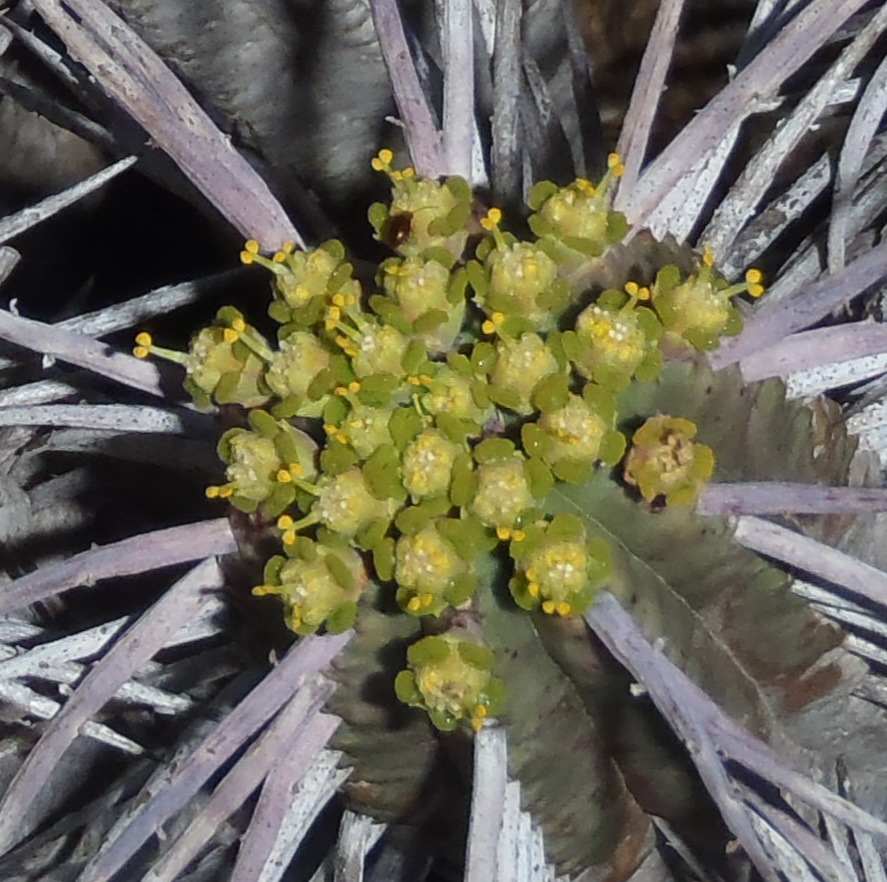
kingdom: Plantae
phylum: Tracheophyta
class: Magnoliopsida
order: Malpighiales
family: Euphorbiaceae
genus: Euphorbia
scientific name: Euphorbia ferox
